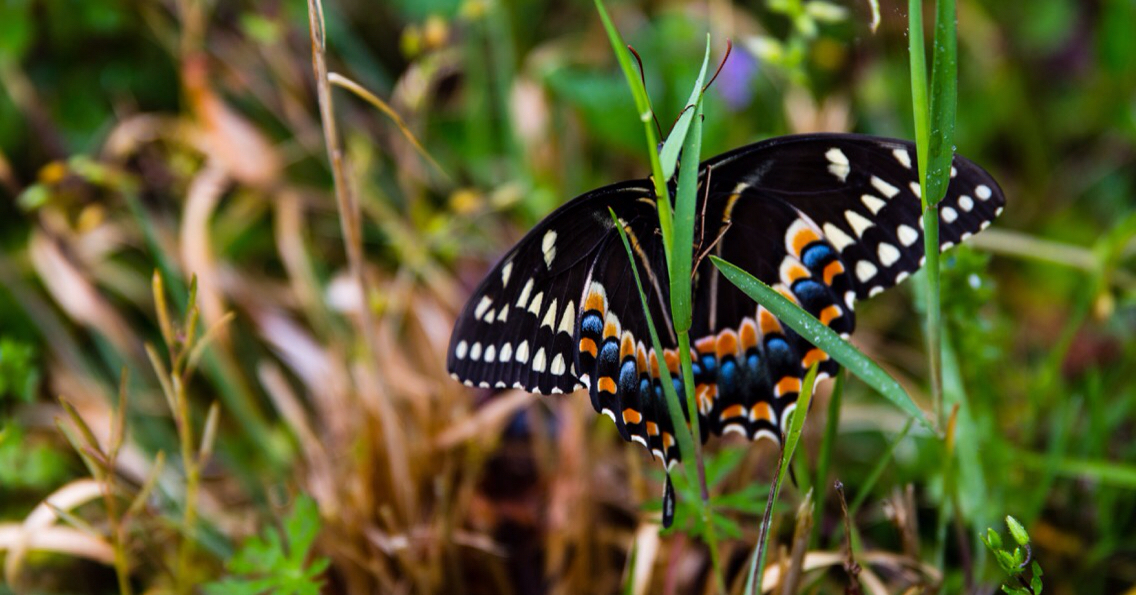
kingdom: Animalia
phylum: Arthropoda
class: Insecta
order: Lepidoptera
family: Papilionidae
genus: Papilio
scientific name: Papilio palamedes
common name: Palamedes swallowtail
